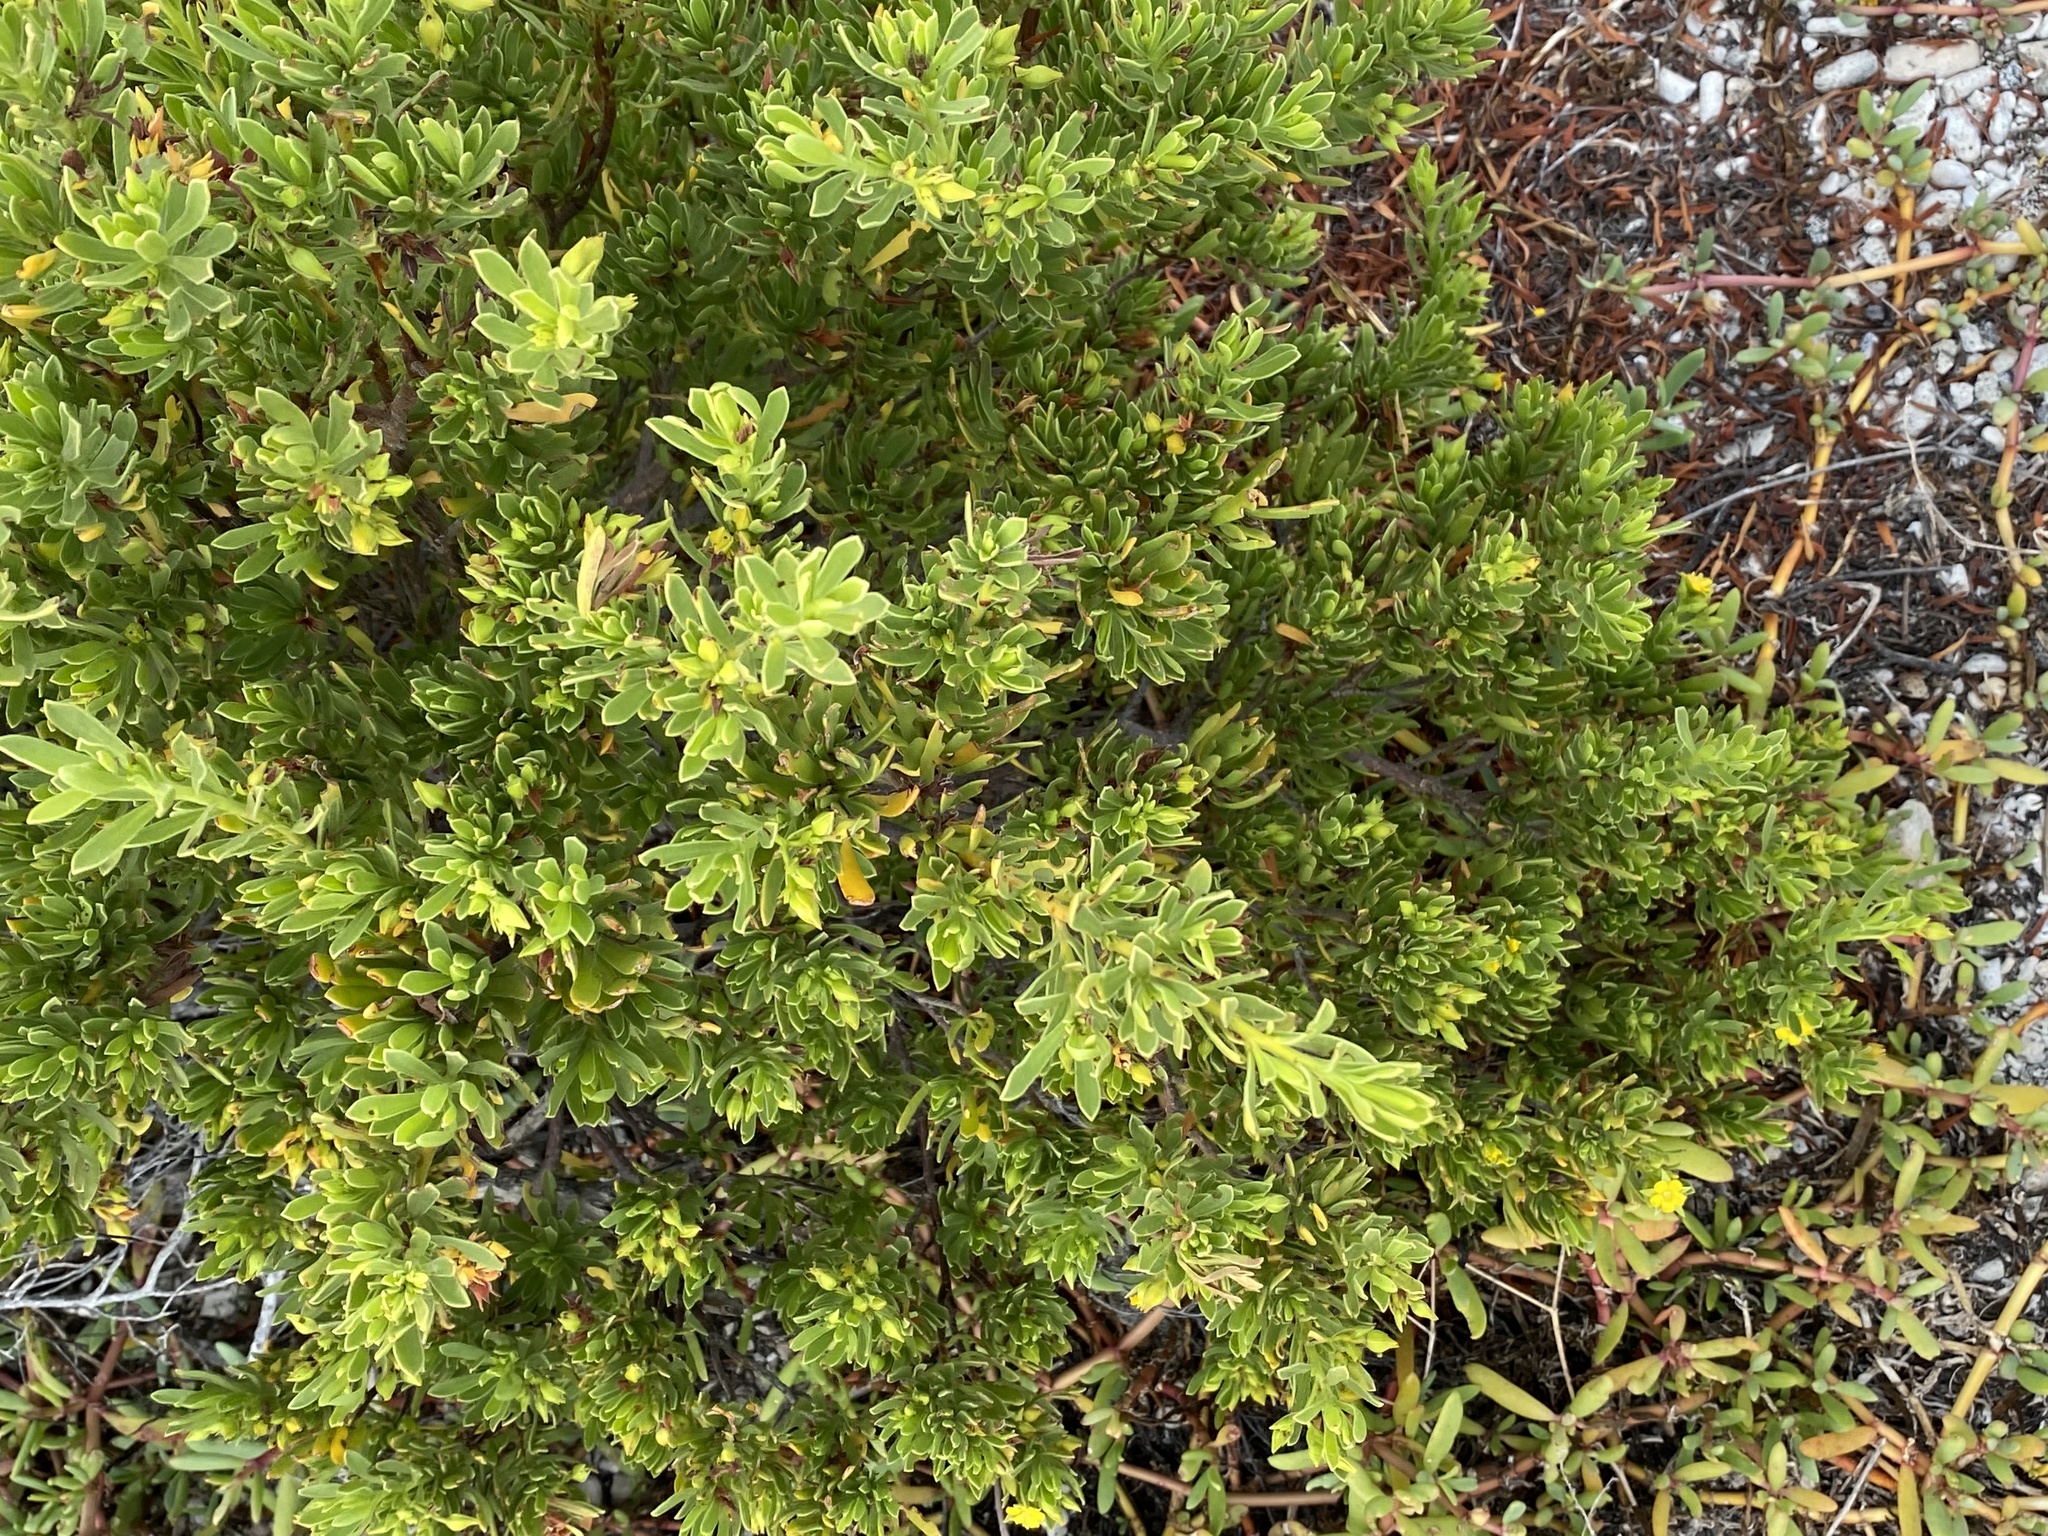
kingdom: Plantae
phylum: Tracheophyta
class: Magnoliopsida
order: Fabales
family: Surianaceae
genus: Suriana
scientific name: Suriana maritima
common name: Bay-cedar
